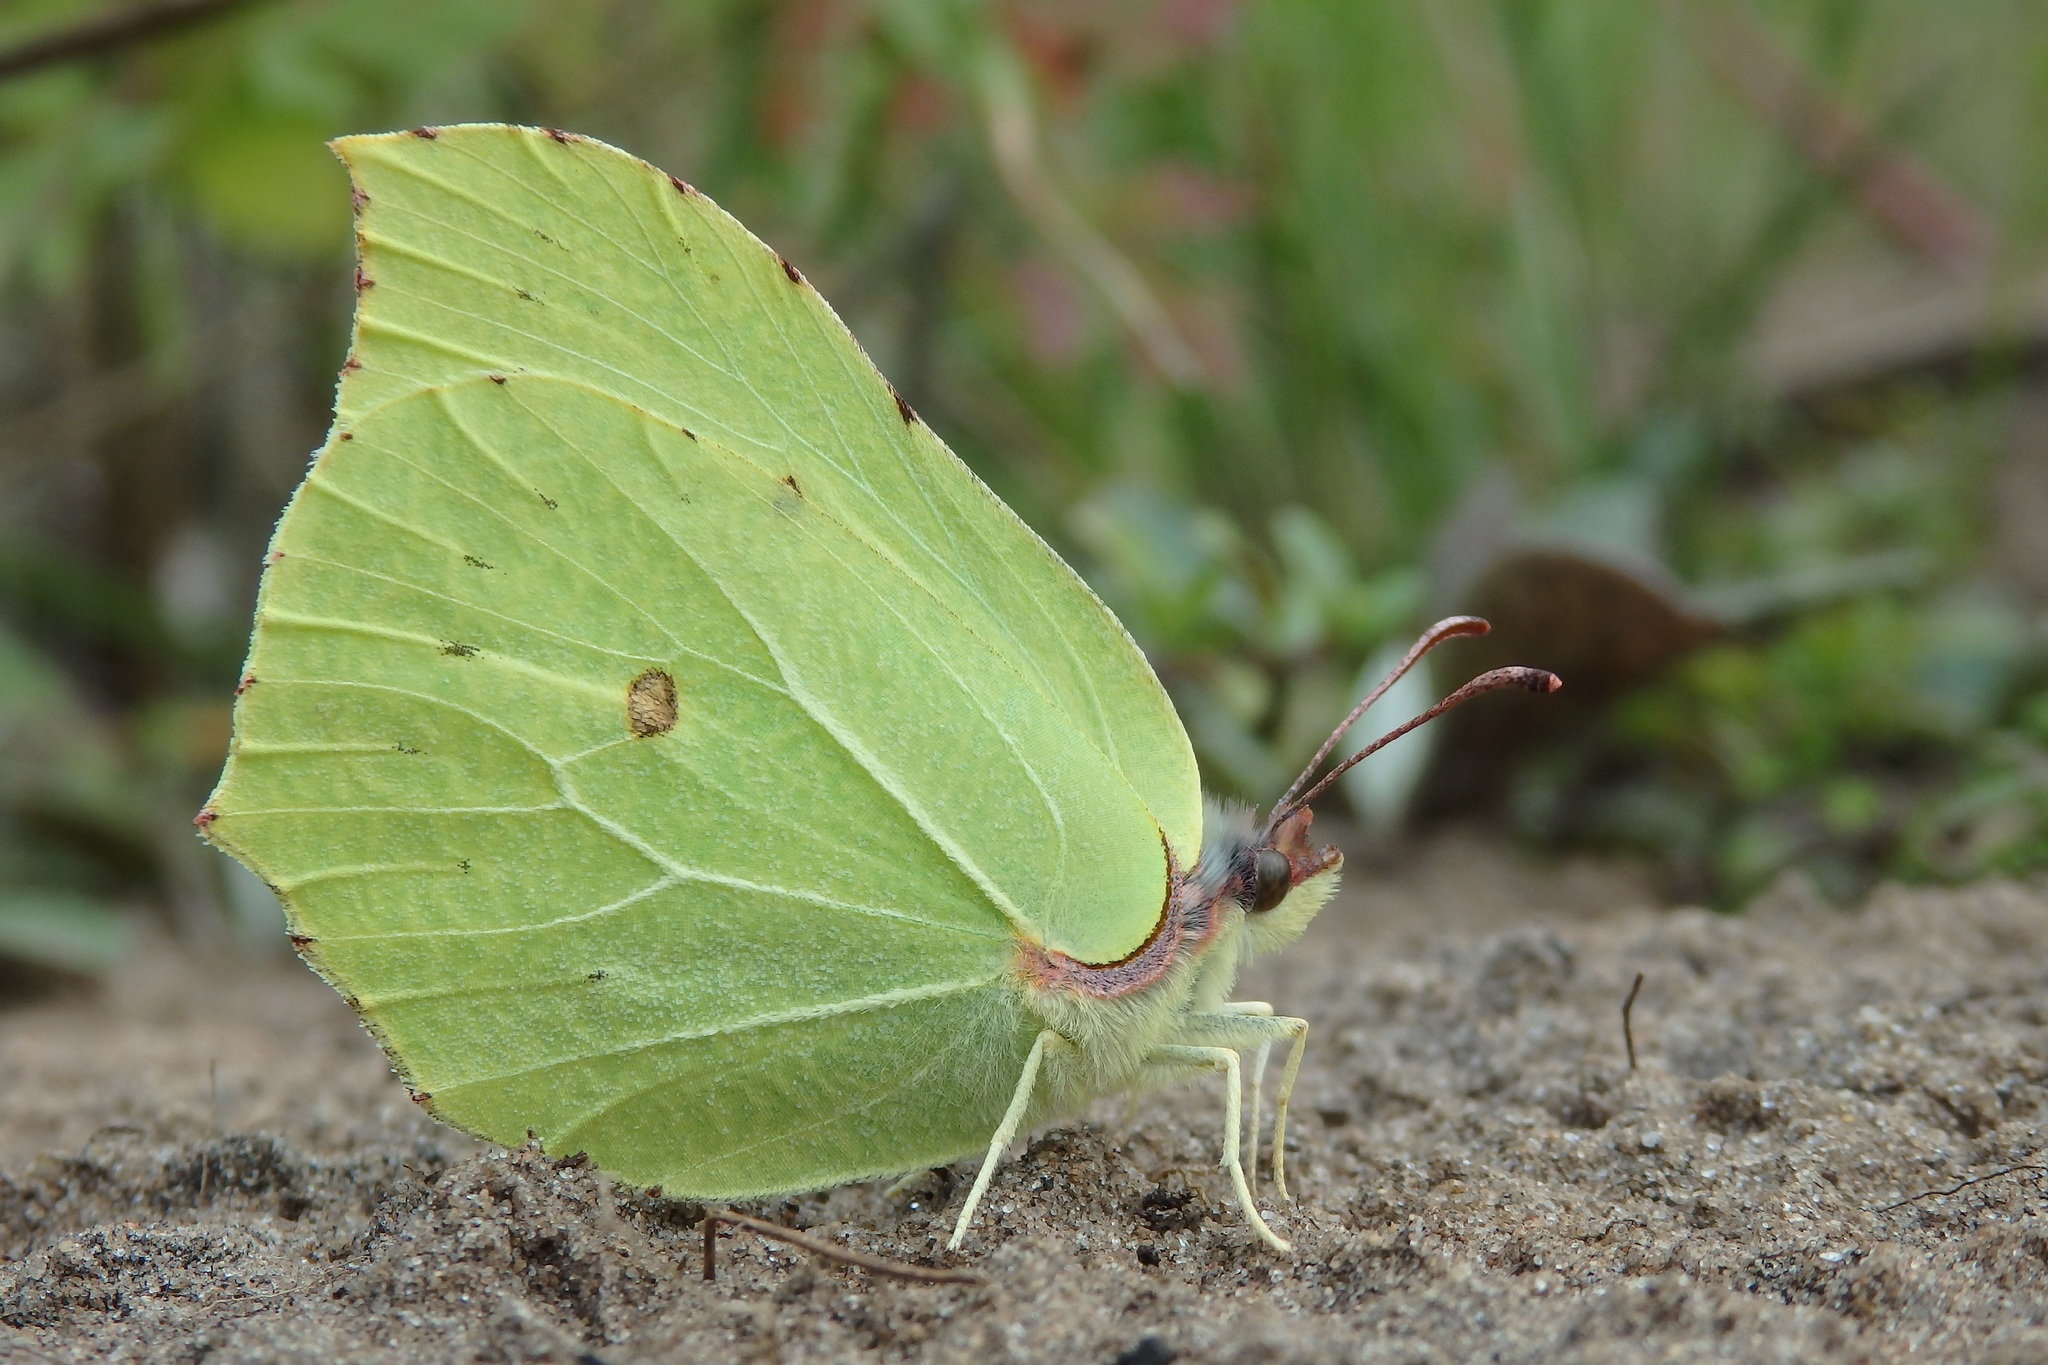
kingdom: Animalia
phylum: Arthropoda
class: Insecta
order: Lepidoptera
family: Pieridae
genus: Gonepteryx
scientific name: Gonepteryx rhamni
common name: Brimstone
